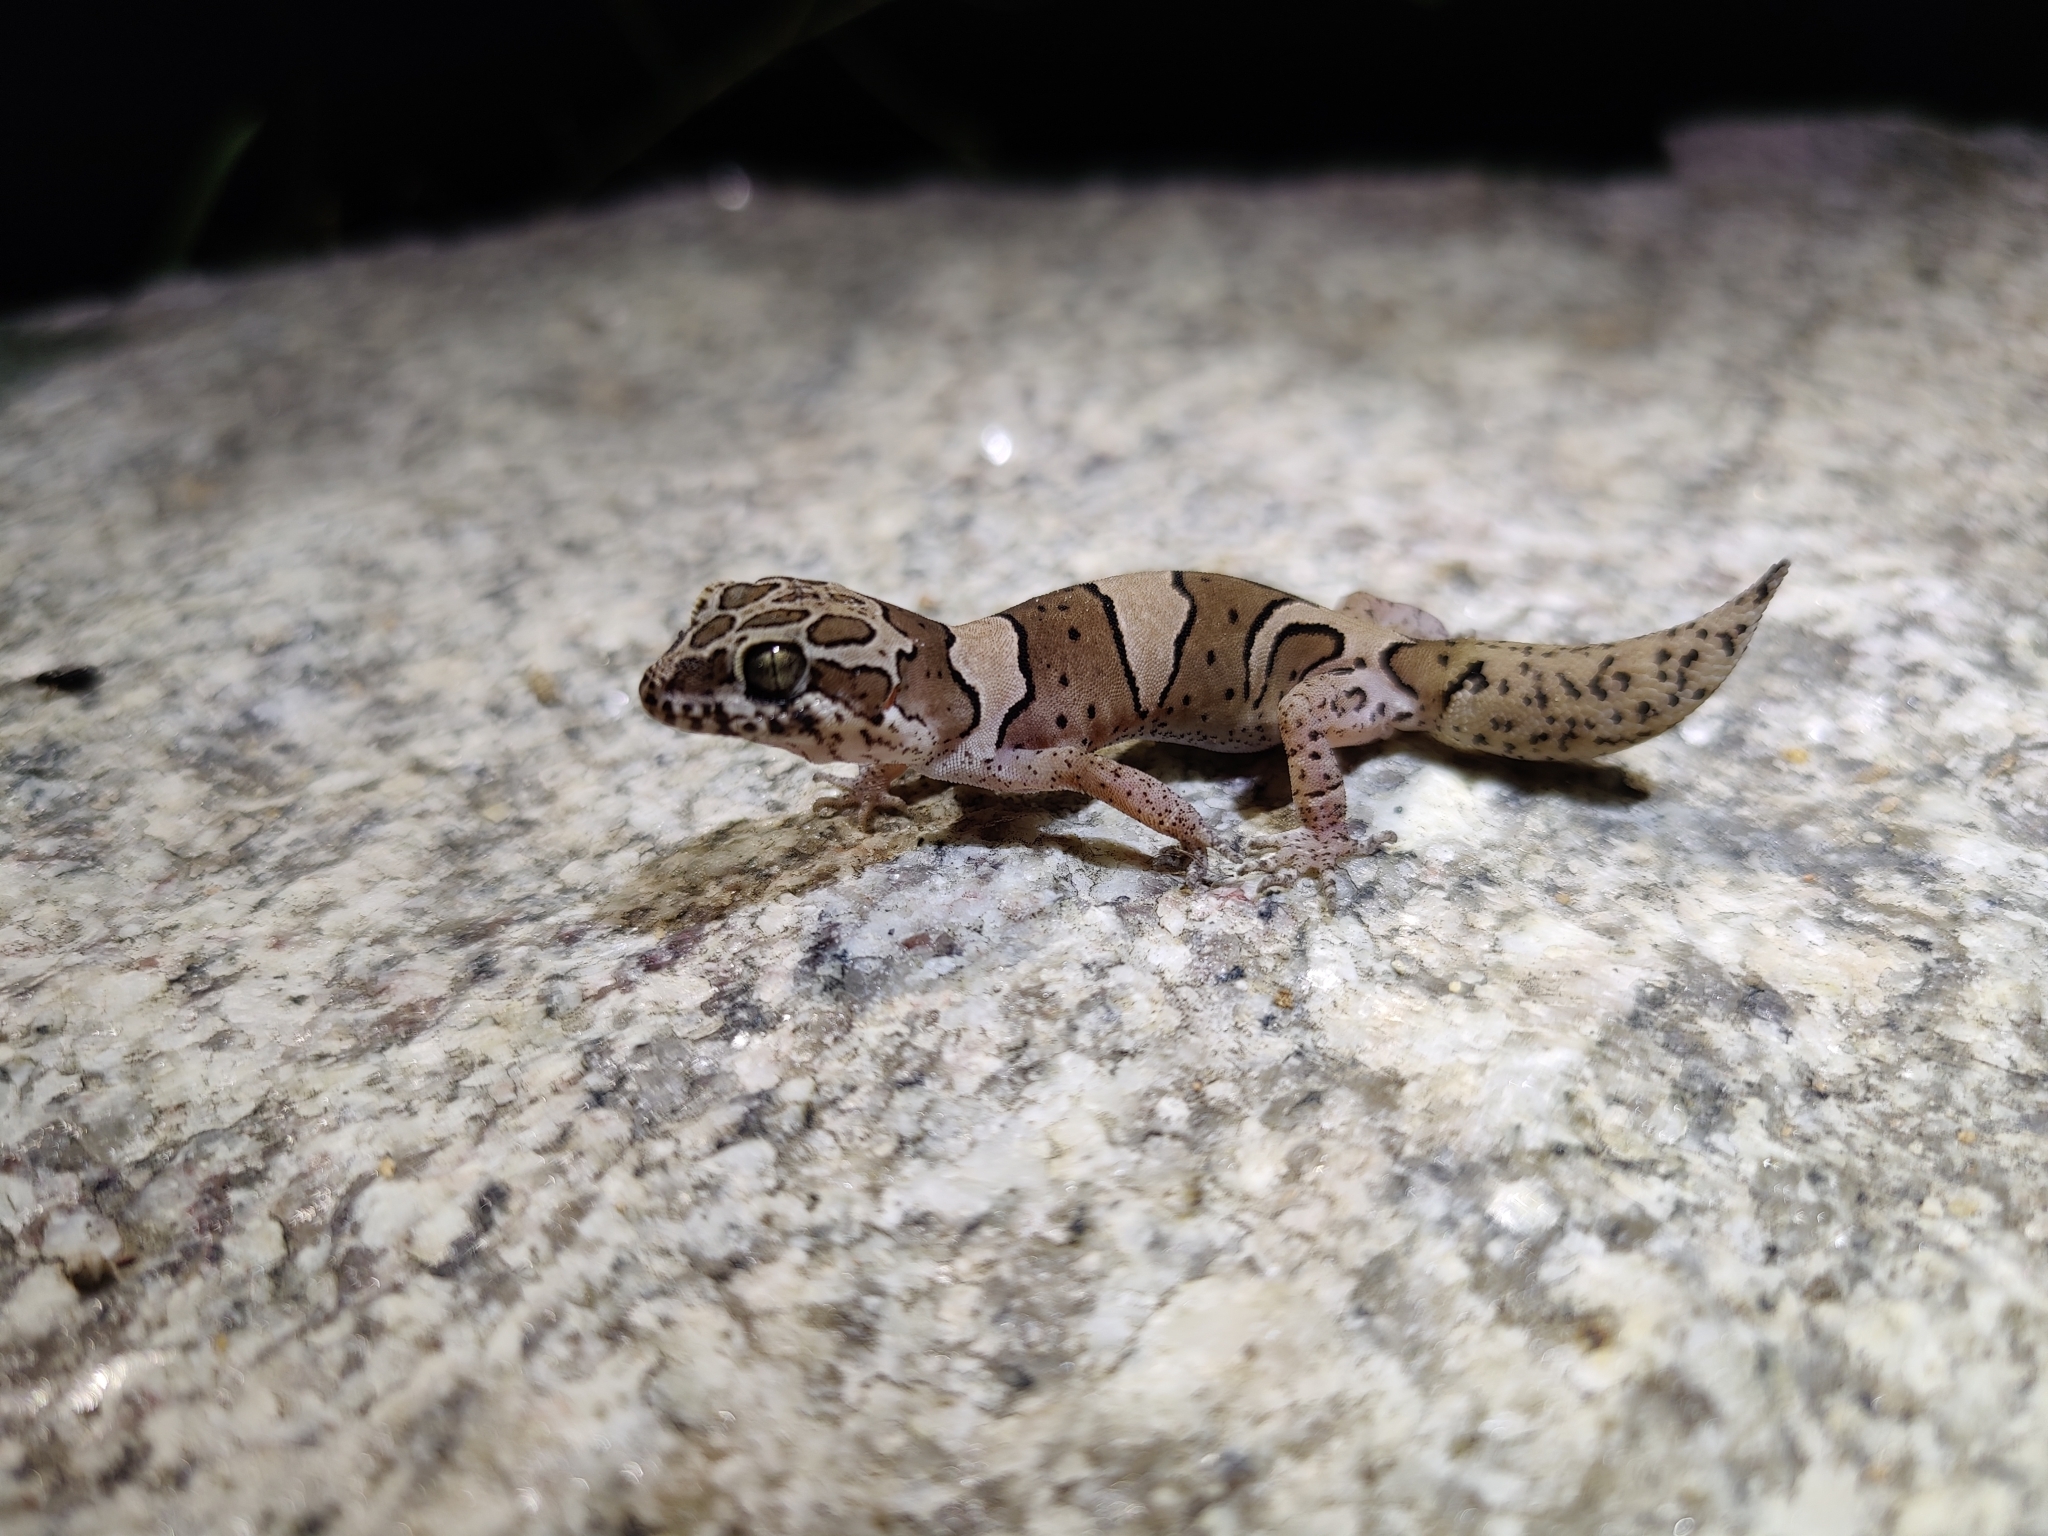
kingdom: Animalia
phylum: Chordata
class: Squamata
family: Gekkonidae
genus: Cyrtodactylus
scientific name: Cyrtodactylus srilekhae
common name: Bangalore geckoella
